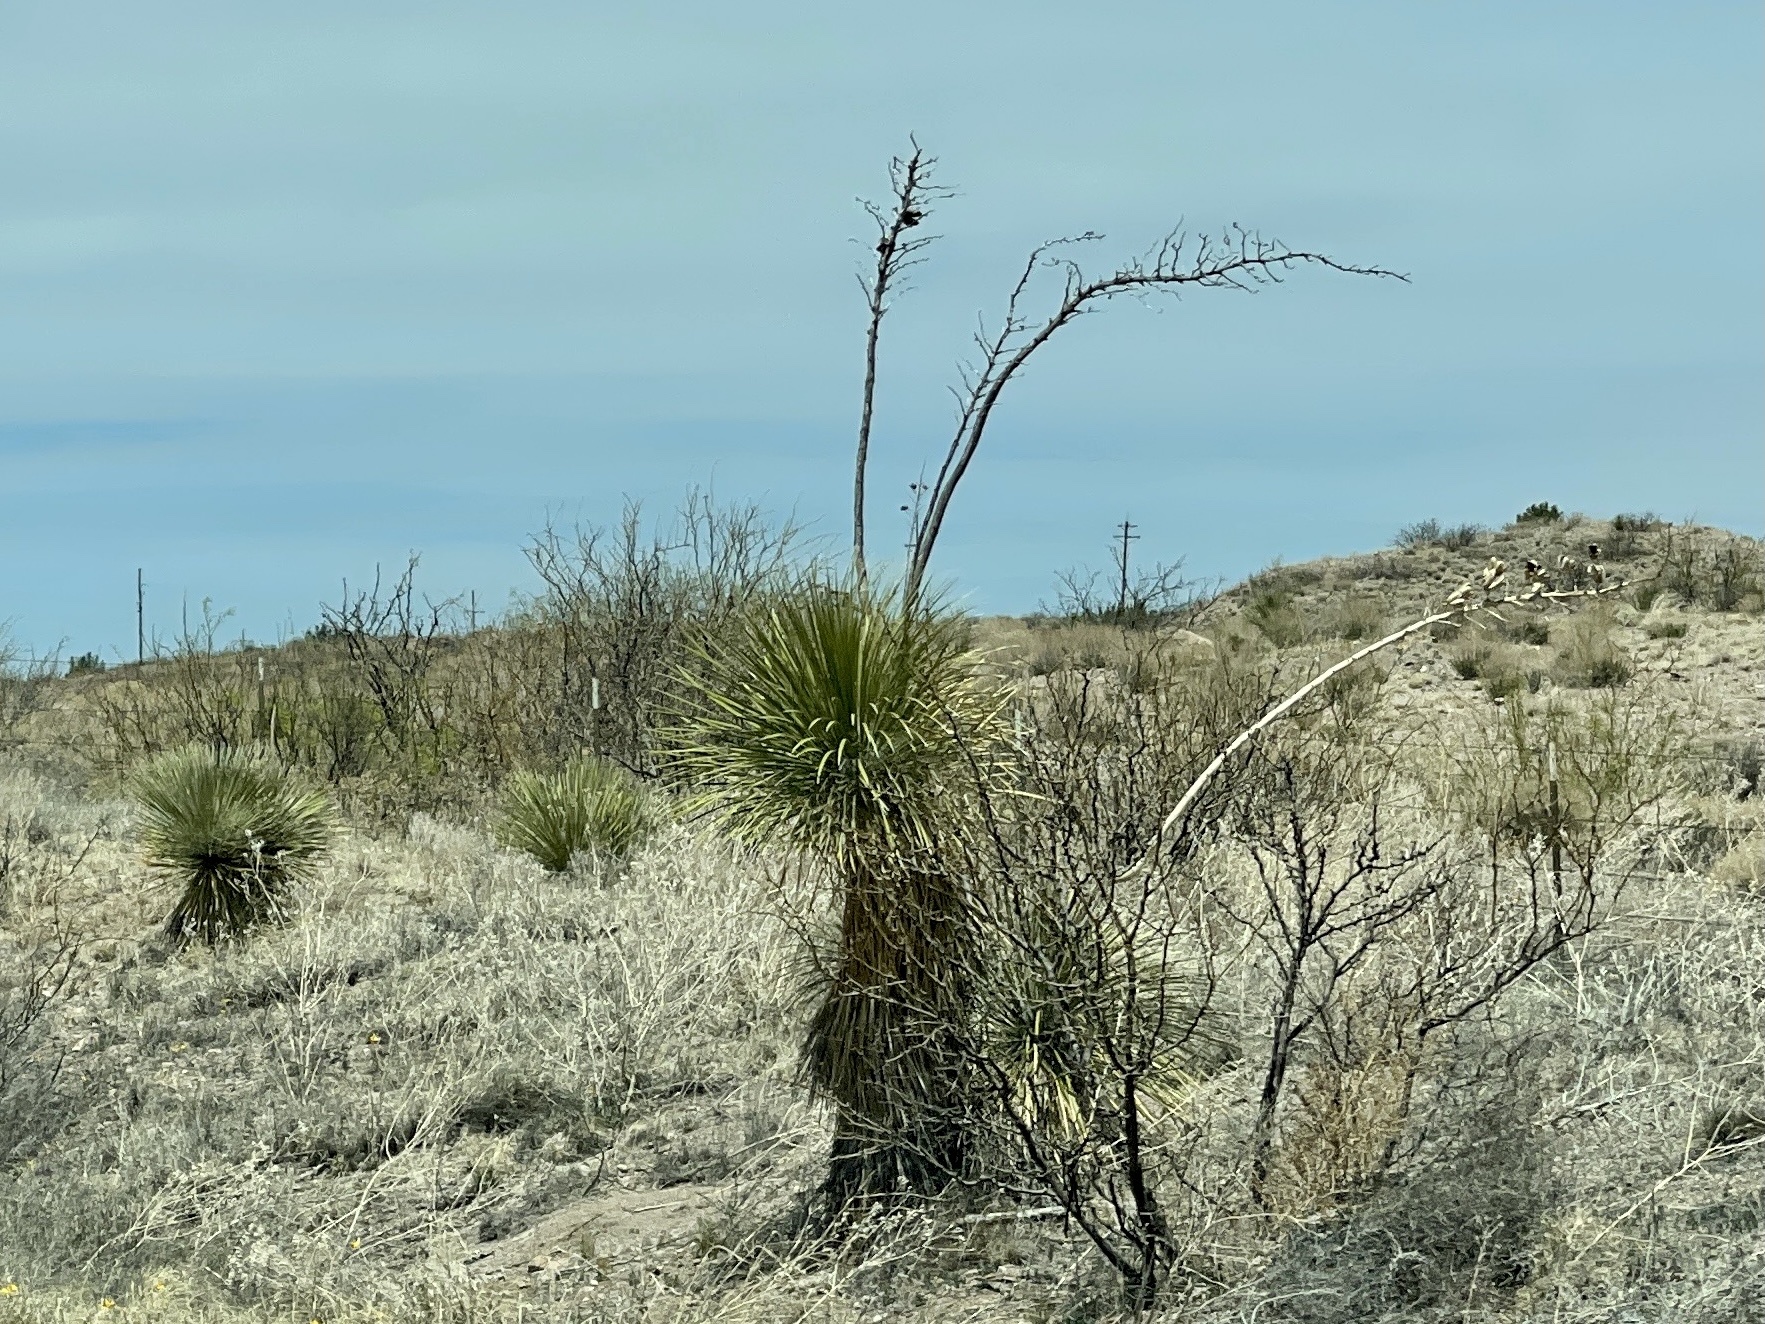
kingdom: Plantae
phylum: Tracheophyta
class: Liliopsida
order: Asparagales
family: Asparagaceae
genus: Yucca
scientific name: Yucca elata
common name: Palmella
